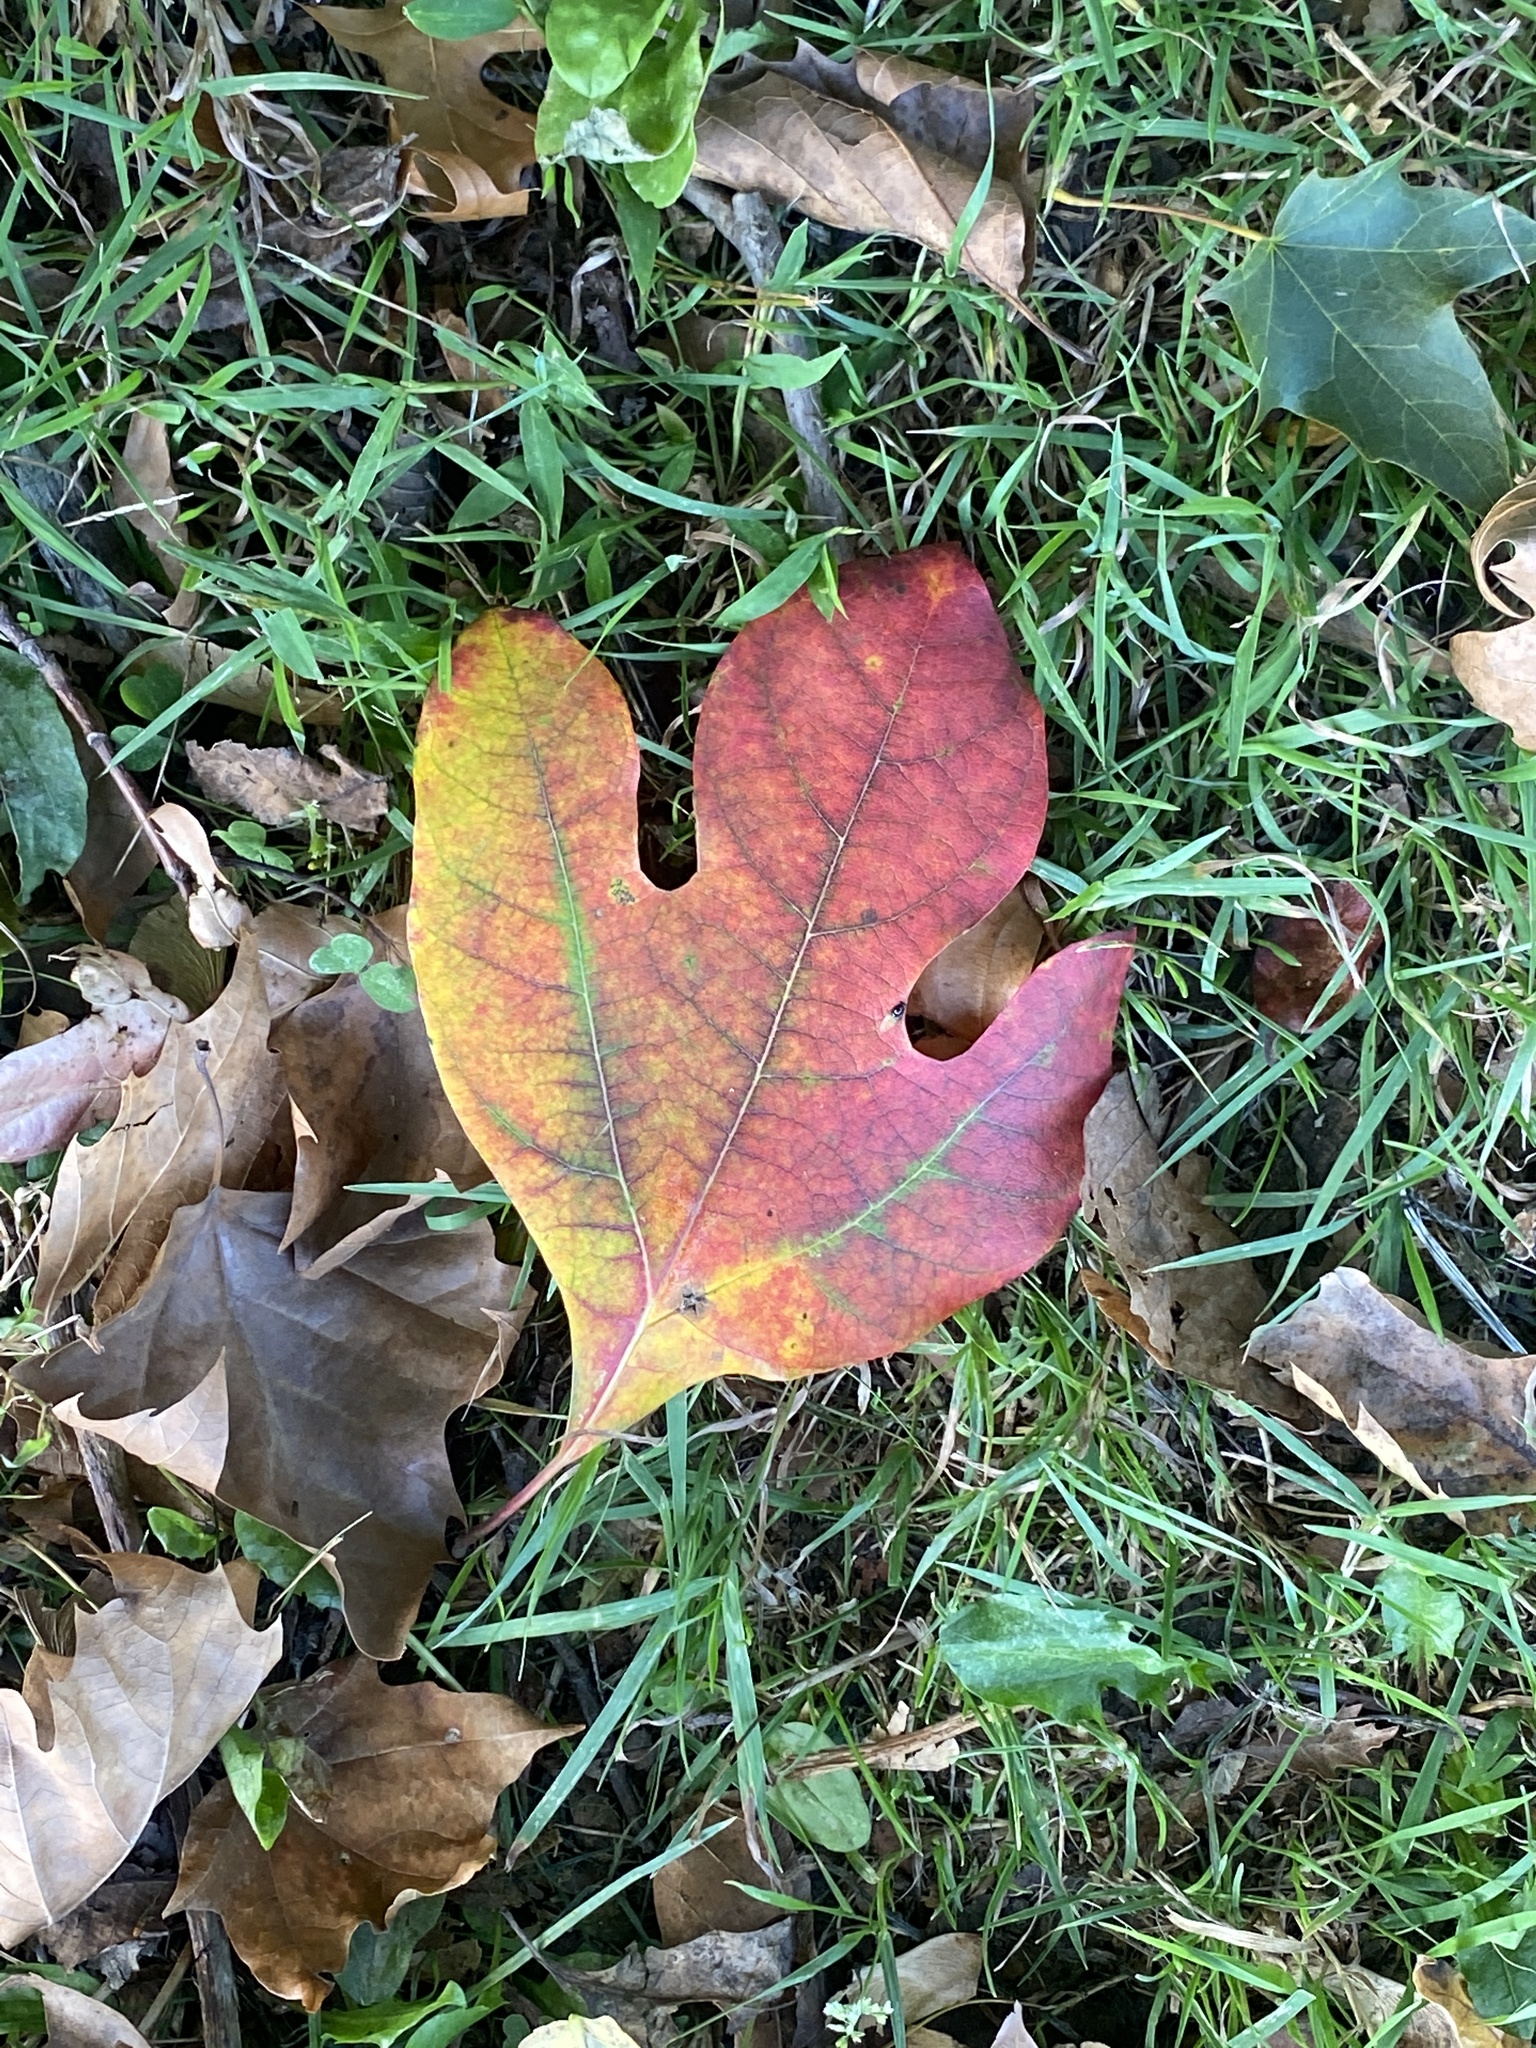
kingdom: Plantae
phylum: Tracheophyta
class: Magnoliopsida
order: Laurales
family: Lauraceae
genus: Sassafras
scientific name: Sassafras albidum
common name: Sassafras
